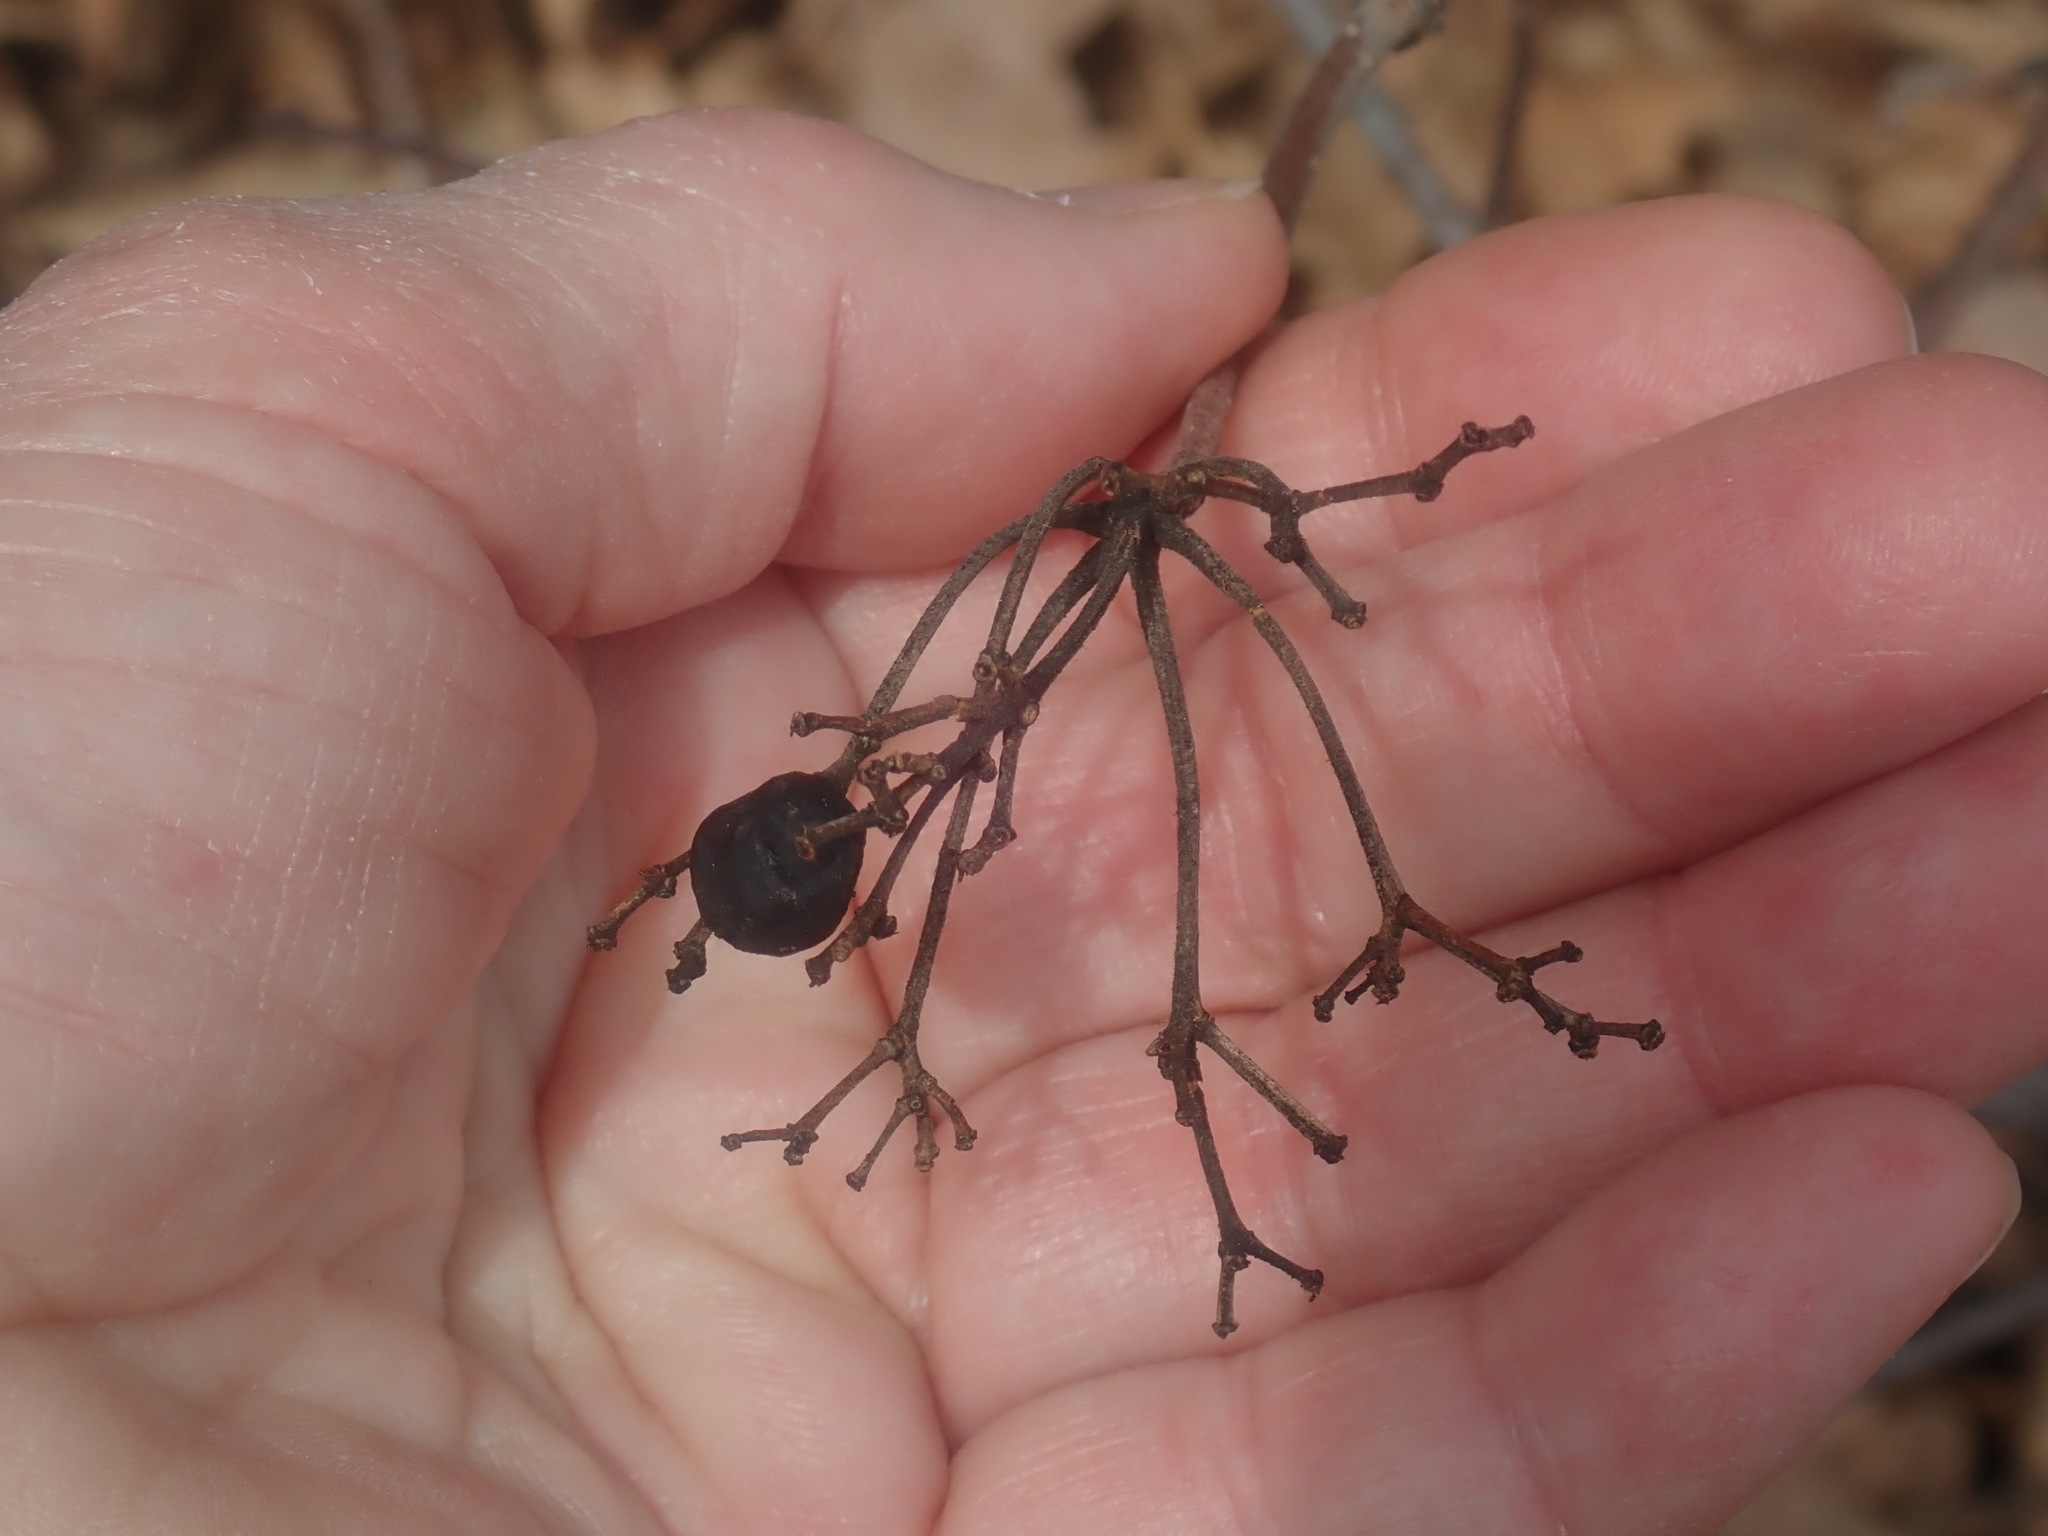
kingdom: Plantae
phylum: Tracheophyta
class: Magnoliopsida
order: Dipsacales
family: Viburnaceae
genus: Viburnum
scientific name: Viburnum acerifolium
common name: Dockmackie
